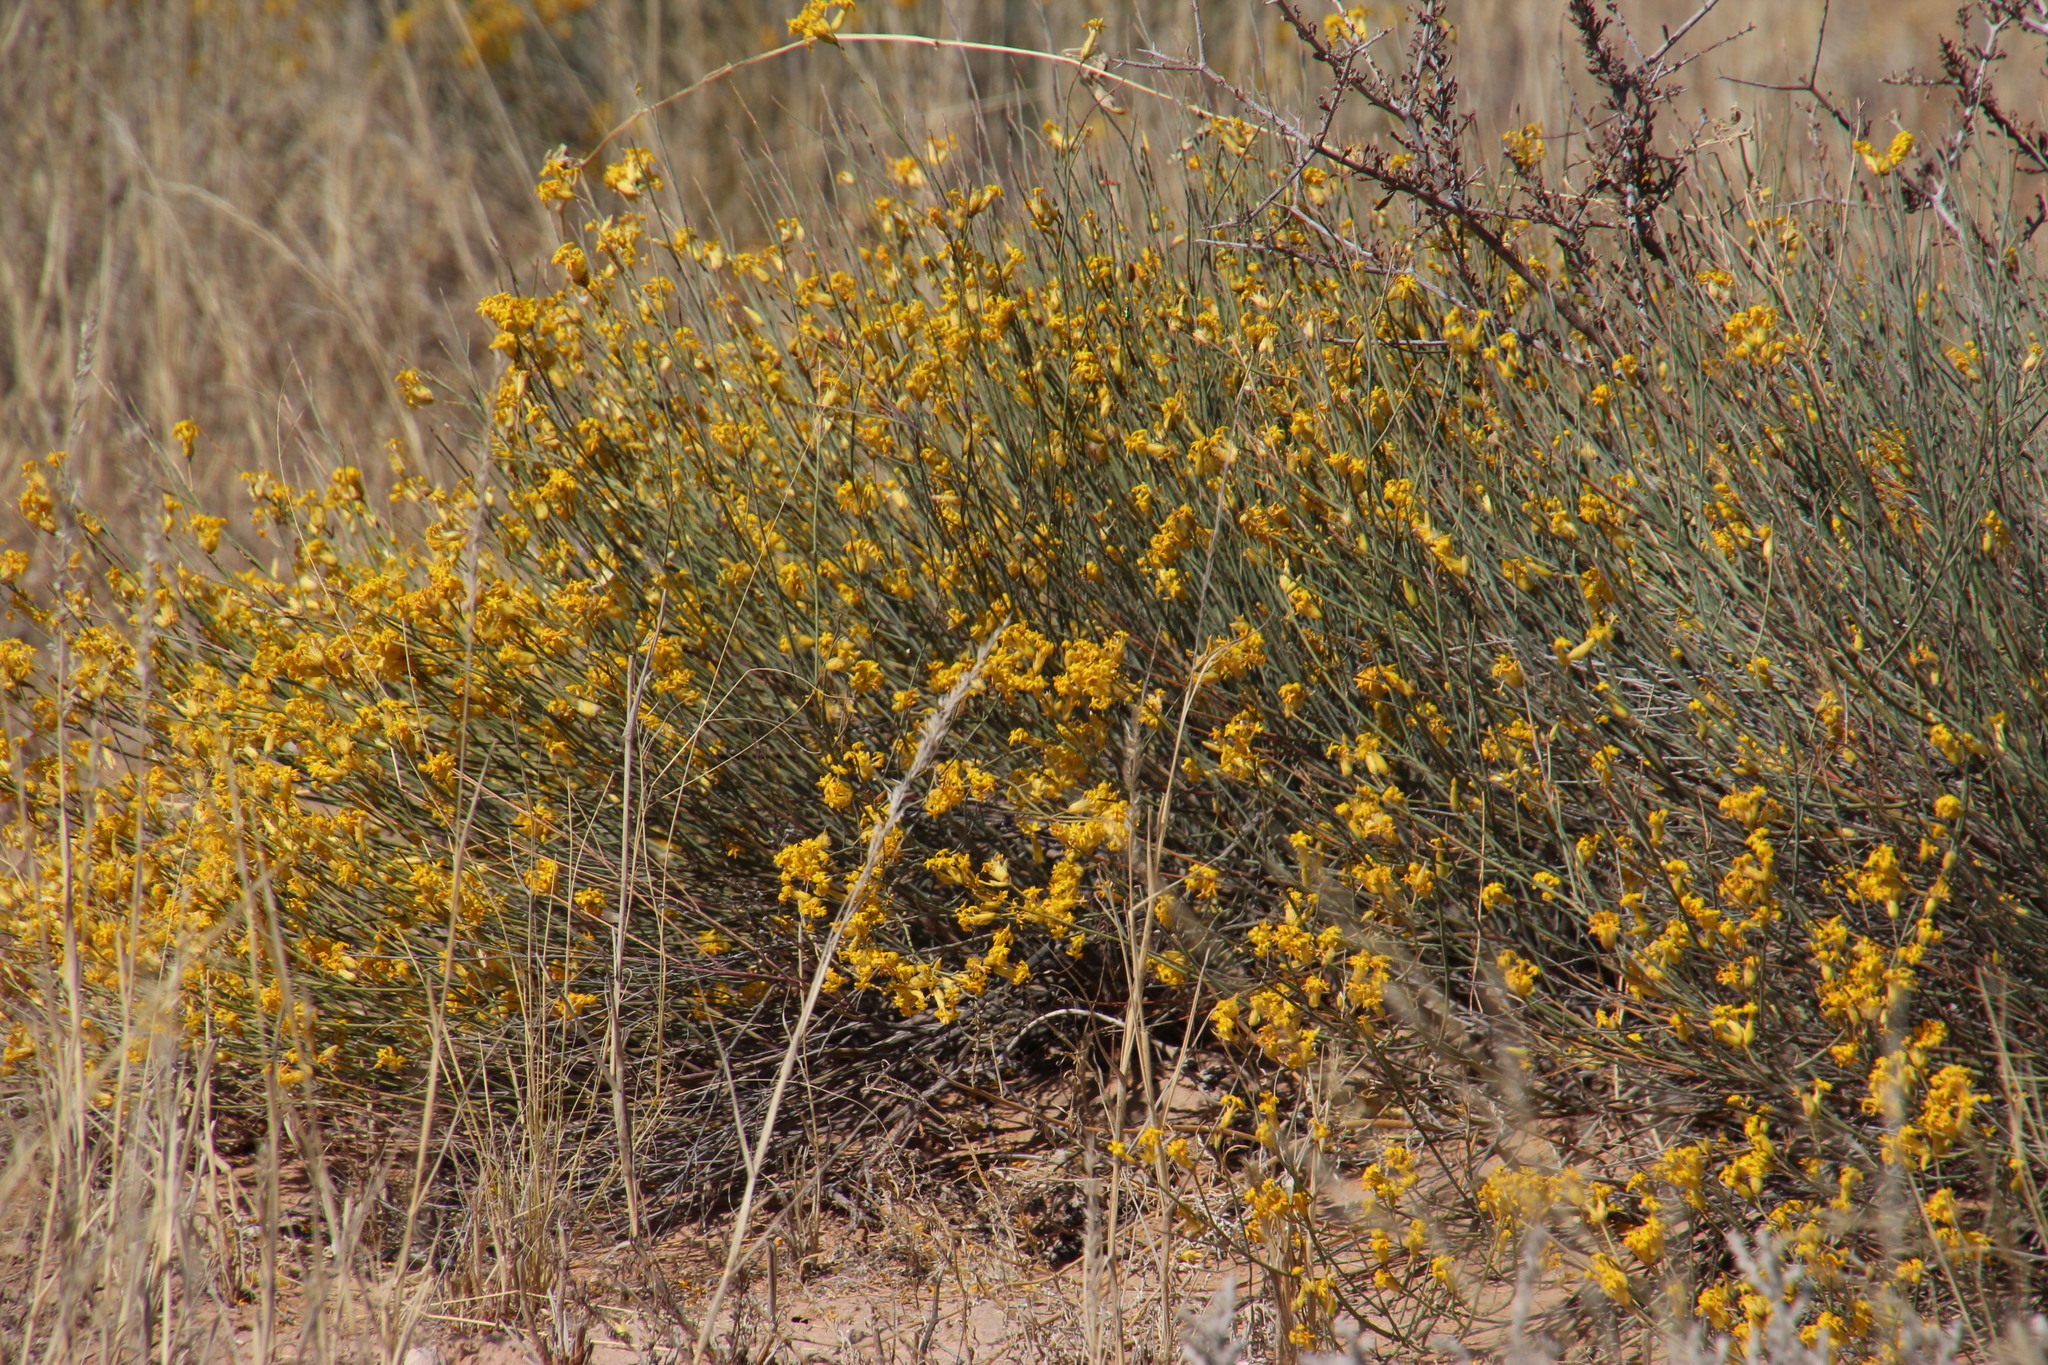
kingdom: Plantae
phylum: Tracheophyta
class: Magnoliopsida
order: Malvales
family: Thymelaeaceae
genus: Gnidia
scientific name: Gnidia polycephala
